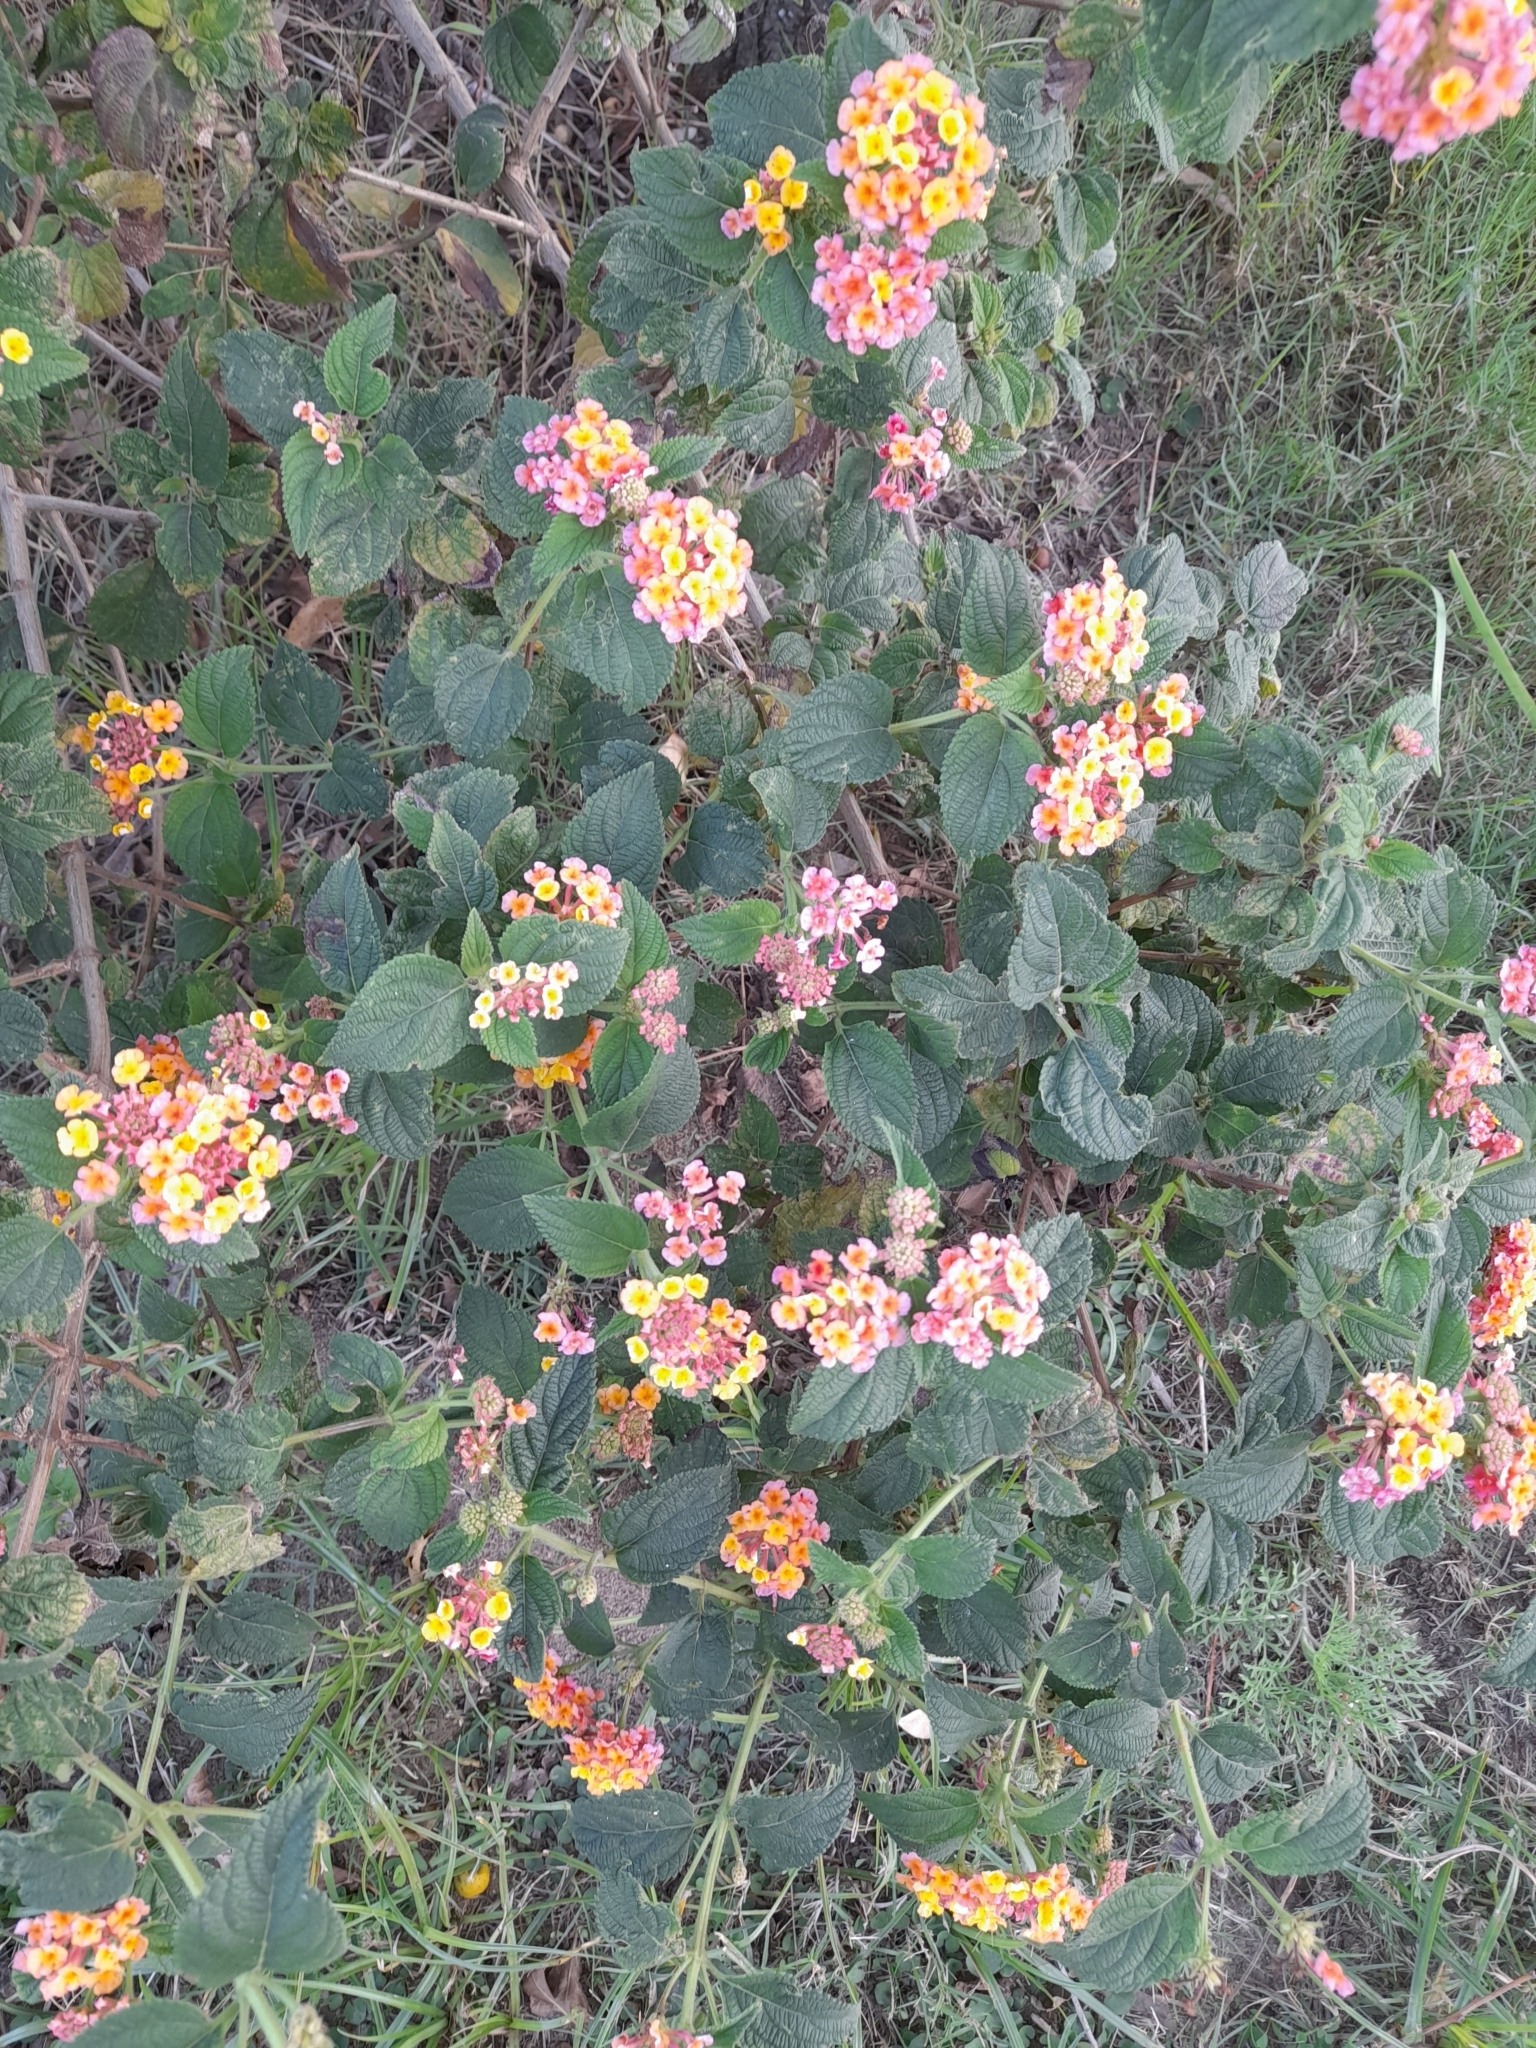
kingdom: Plantae
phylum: Tracheophyta
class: Magnoliopsida
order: Lamiales
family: Verbenaceae
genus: Lantana
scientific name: Lantana camara
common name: Lantana
